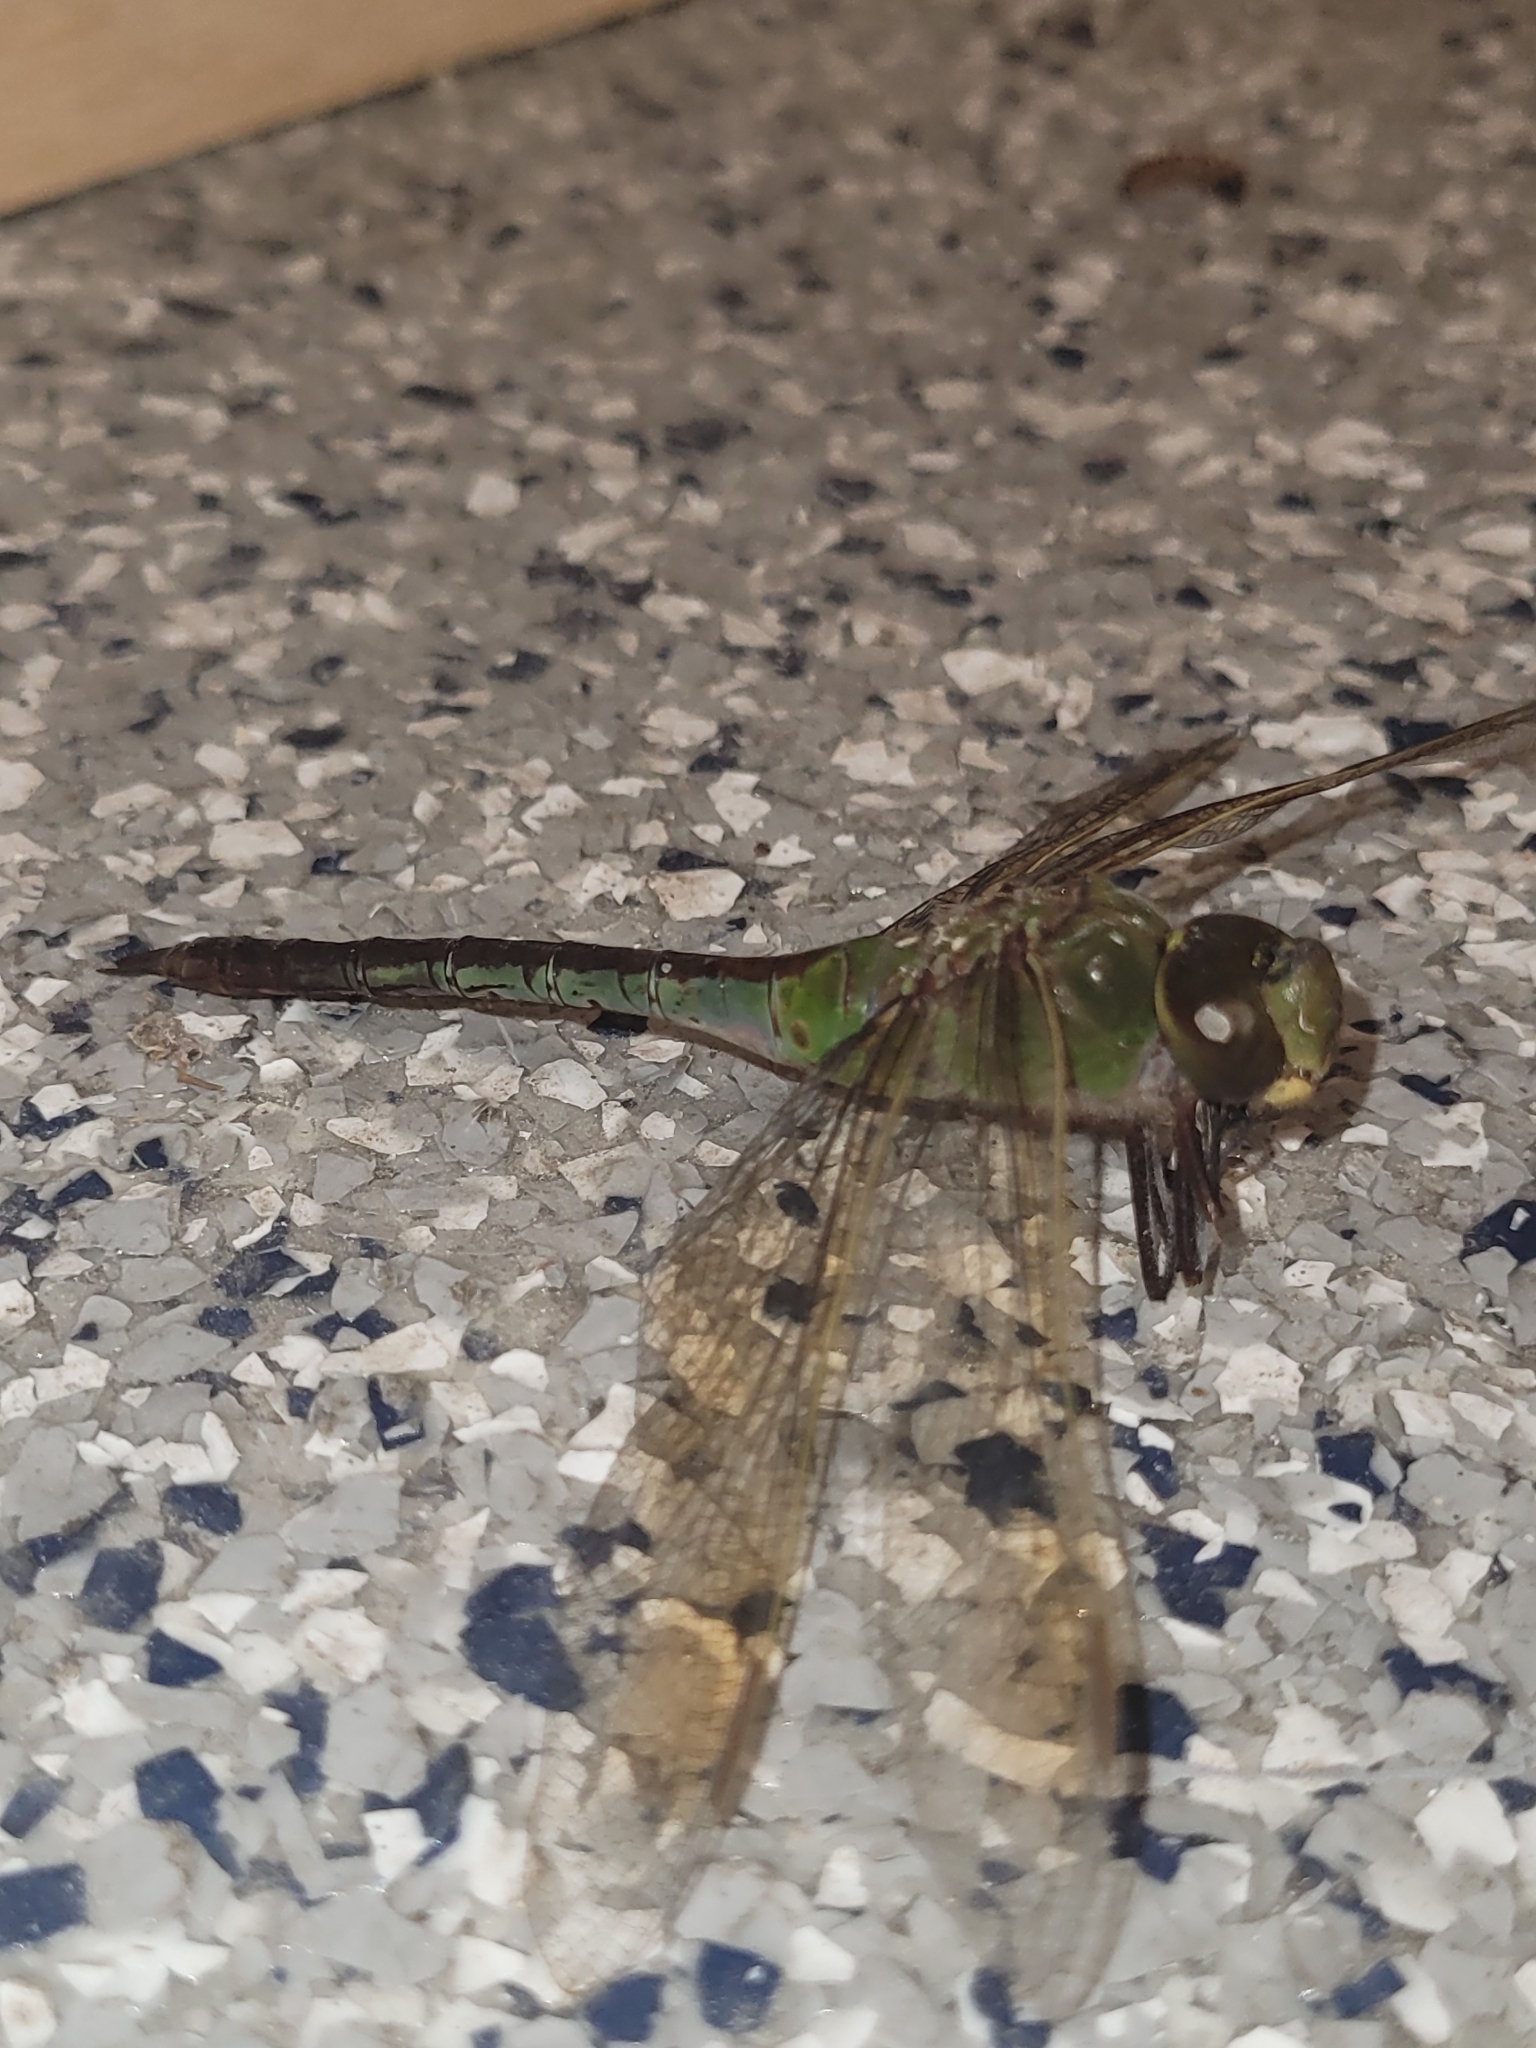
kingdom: Animalia
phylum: Arthropoda
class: Insecta
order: Odonata
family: Aeshnidae
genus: Anax
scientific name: Anax junius
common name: Common green darner
